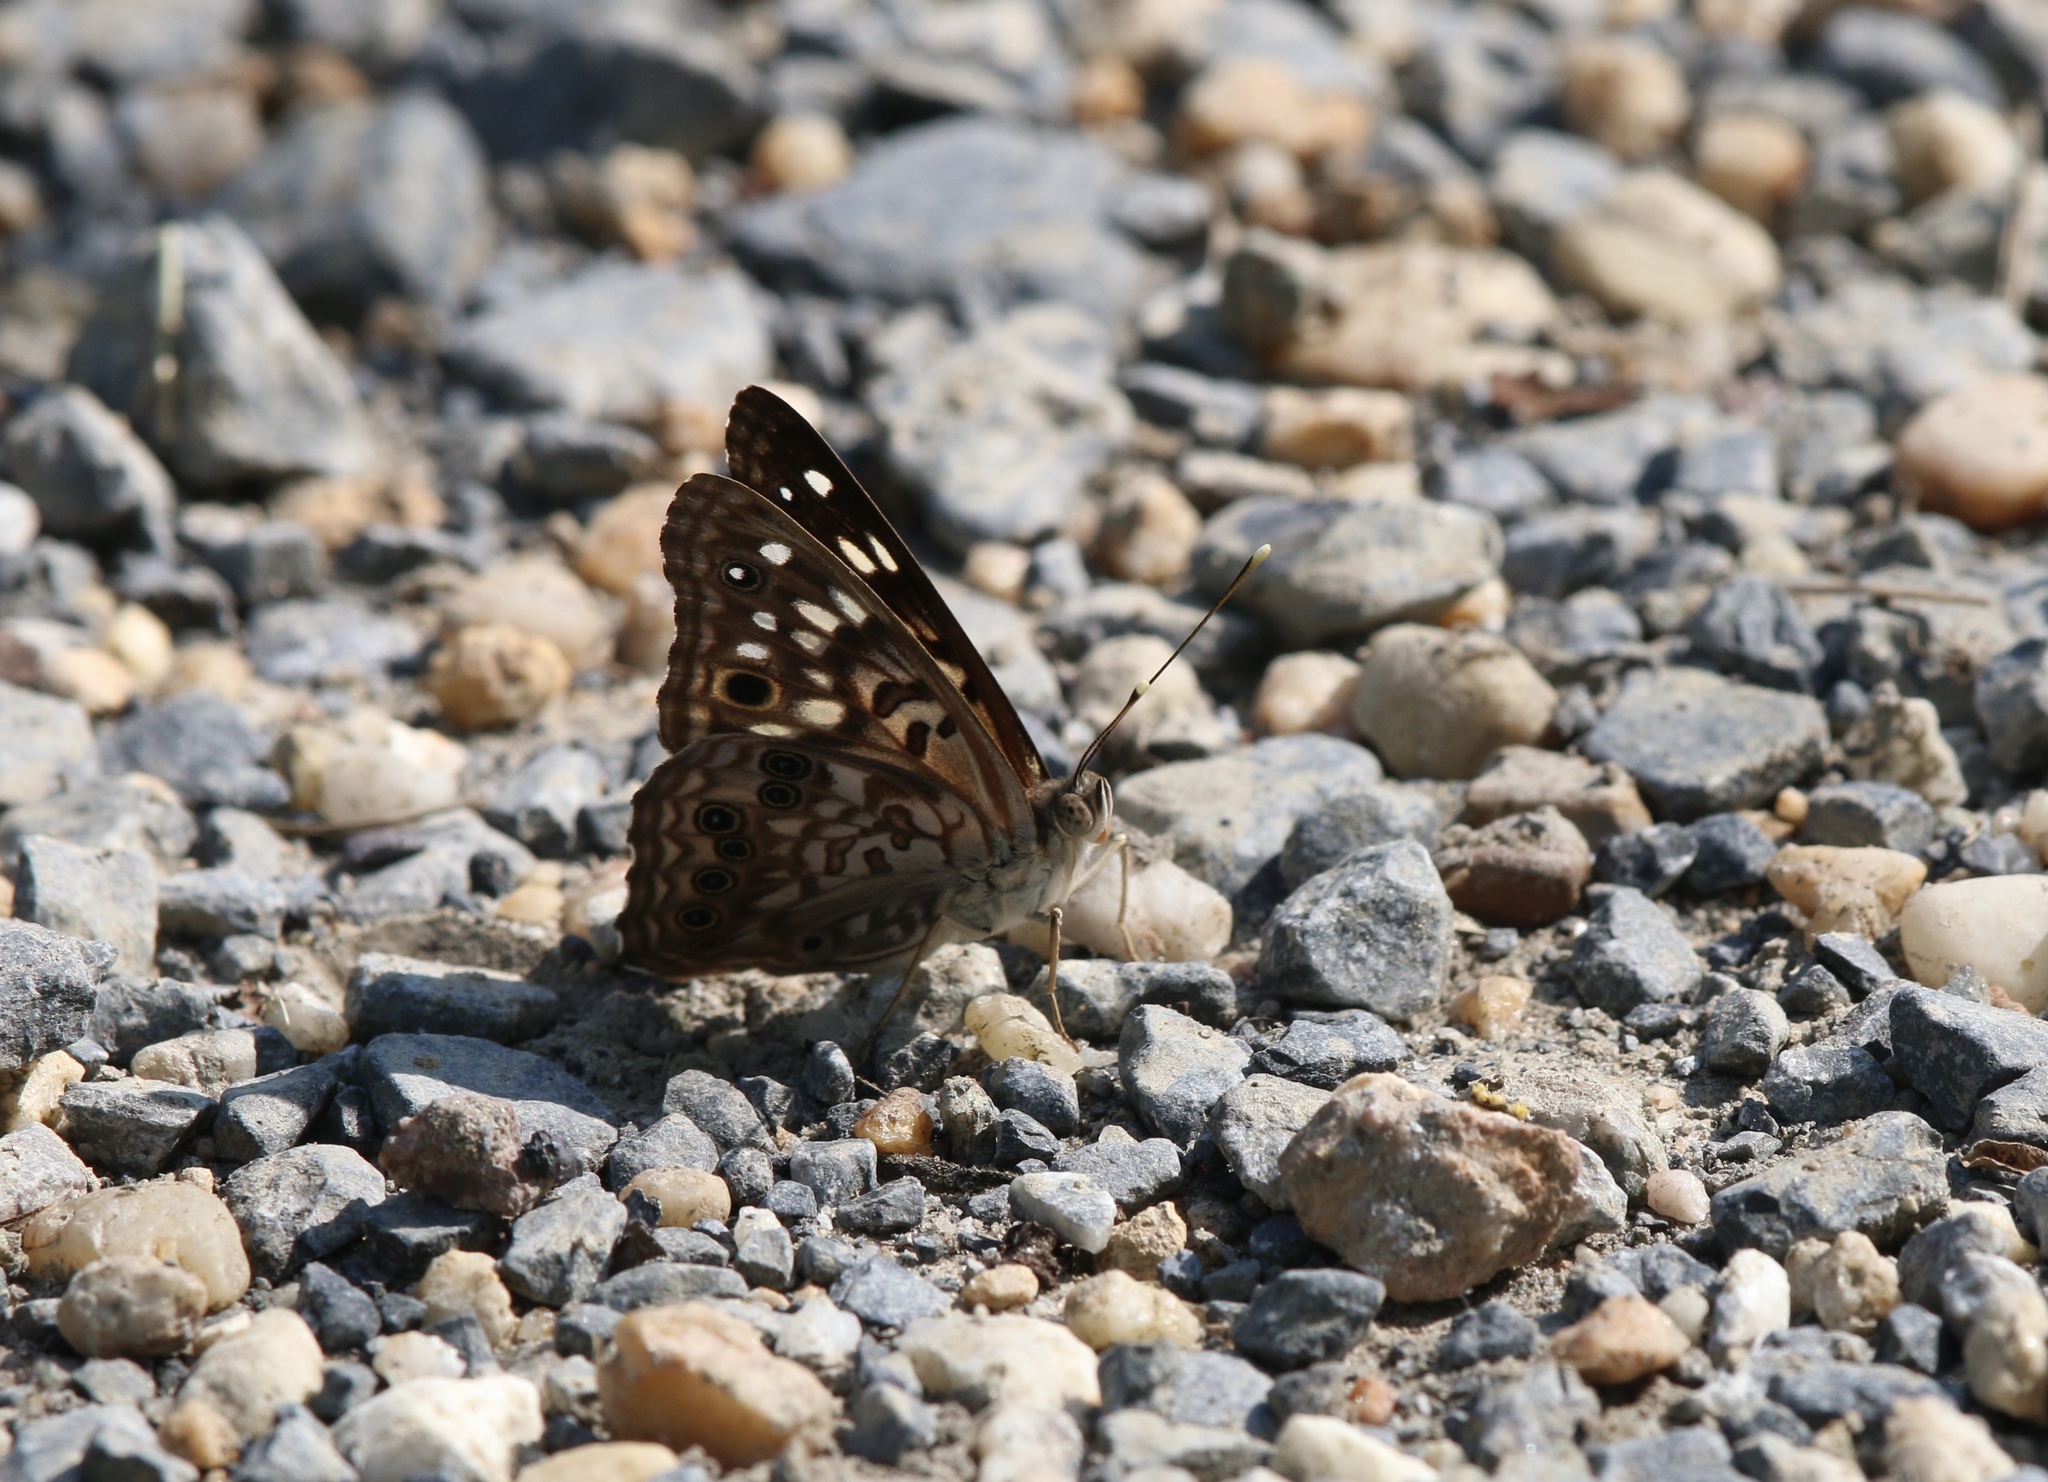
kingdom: Animalia
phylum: Arthropoda
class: Insecta
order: Lepidoptera
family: Nymphalidae
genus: Asterocampa
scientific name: Asterocampa celtis
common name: Hackberry emperor
